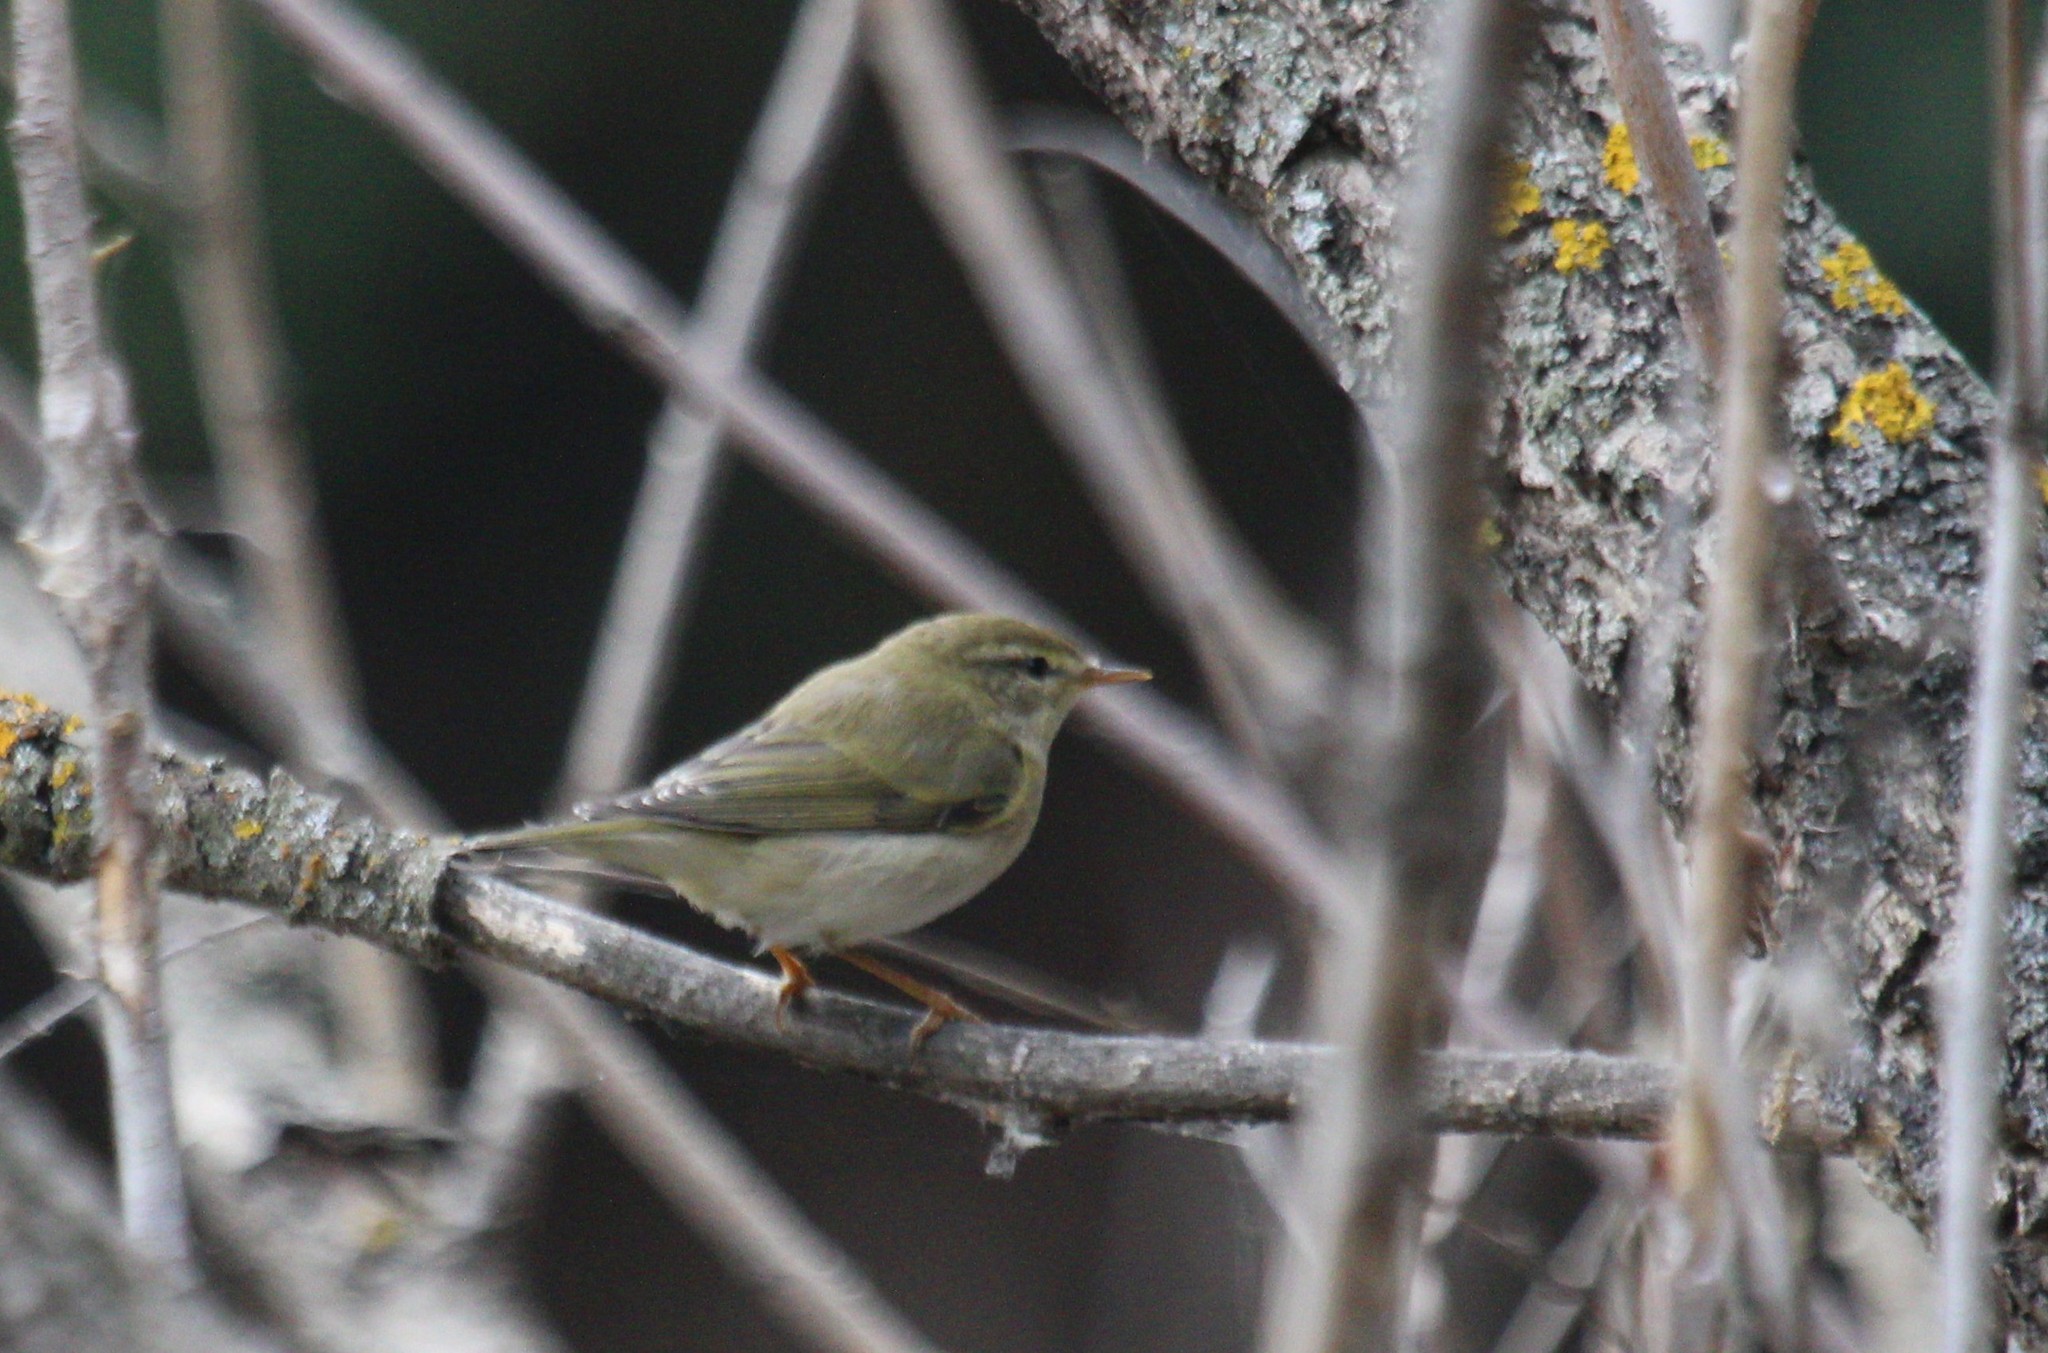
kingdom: Animalia
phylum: Chordata
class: Aves
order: Passeriformes
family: Phylloscopidae
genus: Phylloscopus
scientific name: Phylloscopus trochilus
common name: Willow warbler
